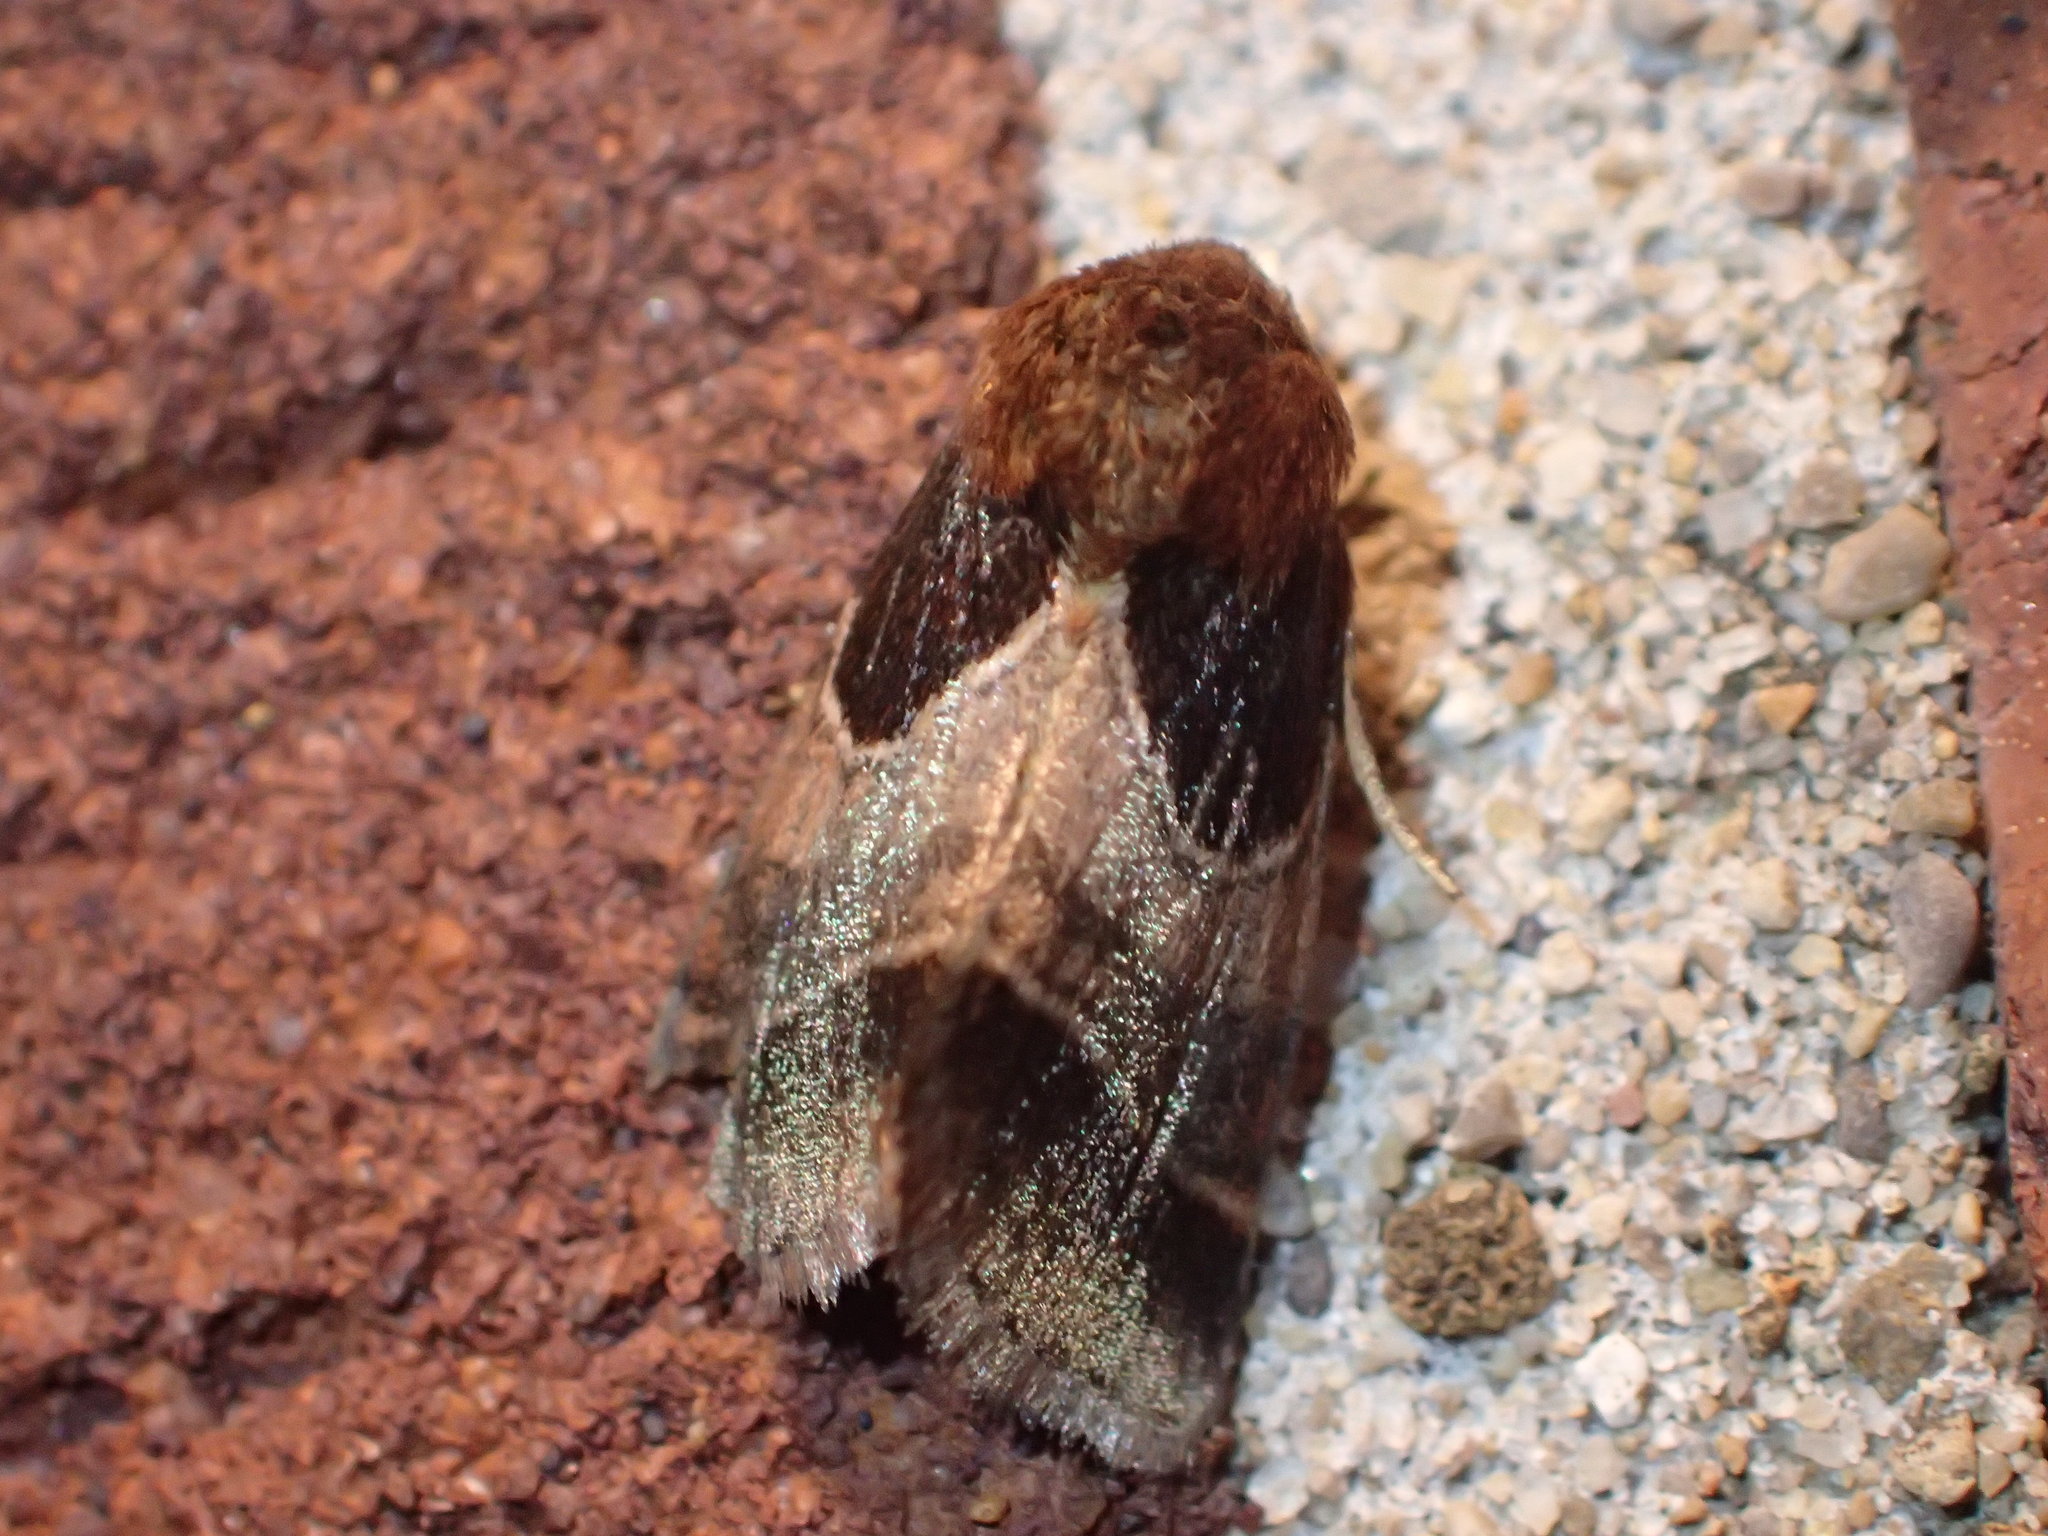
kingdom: Animalia
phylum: Arthropoda
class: Insecta
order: Lepidoptera
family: Noctuidae
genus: Schinia
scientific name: Schinia arcigera
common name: Arcigera flower moth
